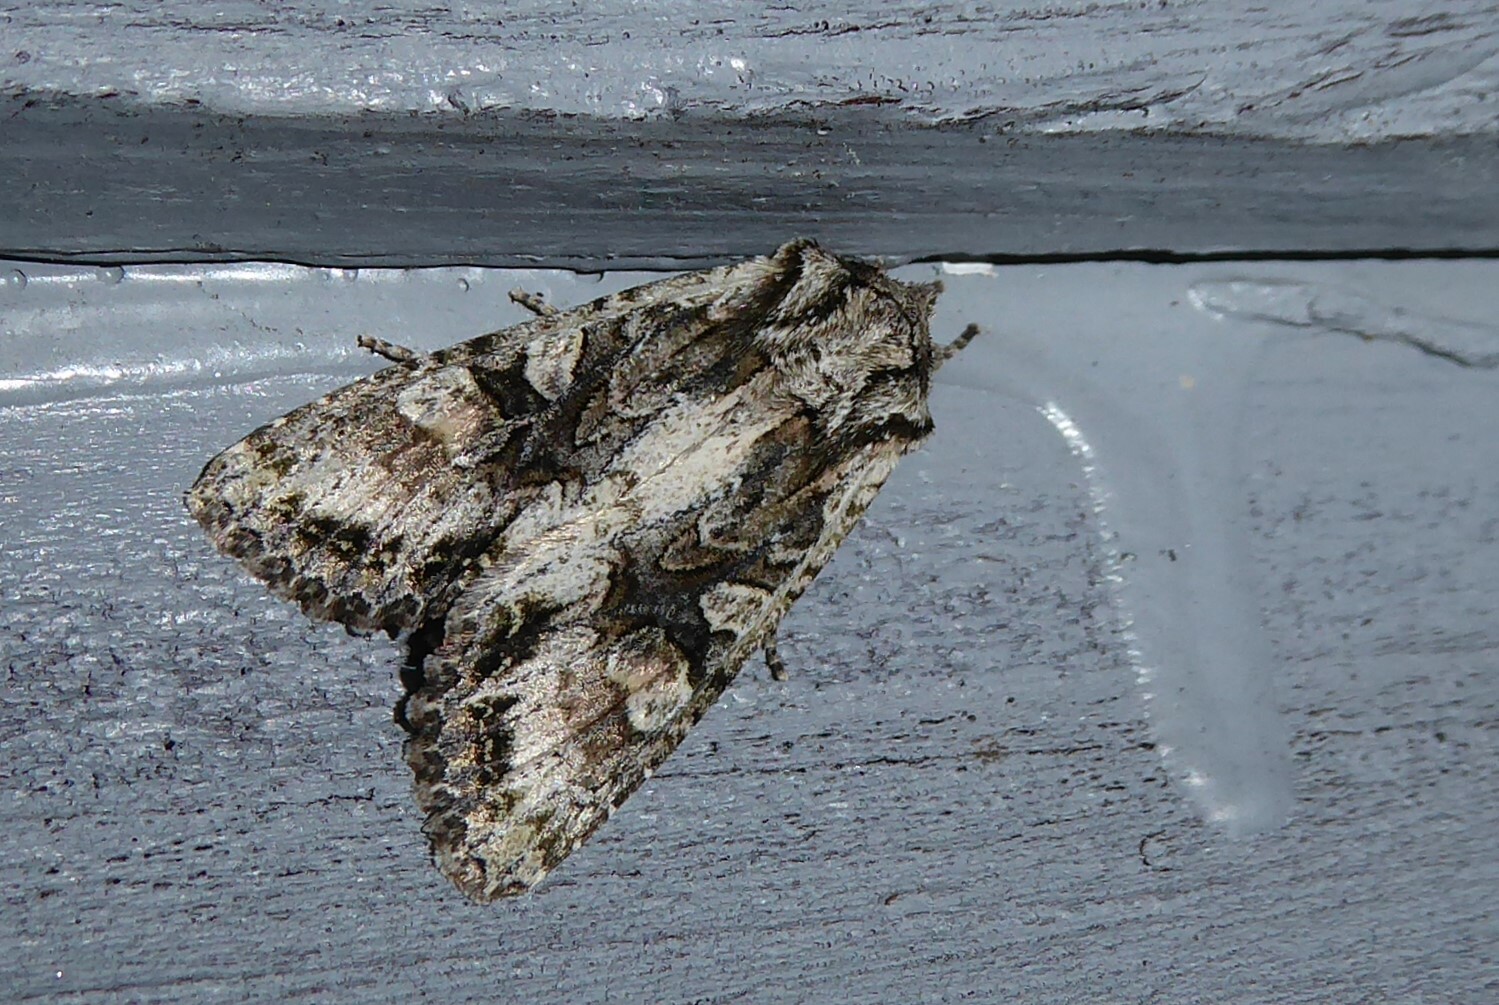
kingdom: Animalia
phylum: Arthropoda
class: Insecta
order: Lepidoptera
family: Noctuidae
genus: Ichneutica
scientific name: Ichneutica mutans
